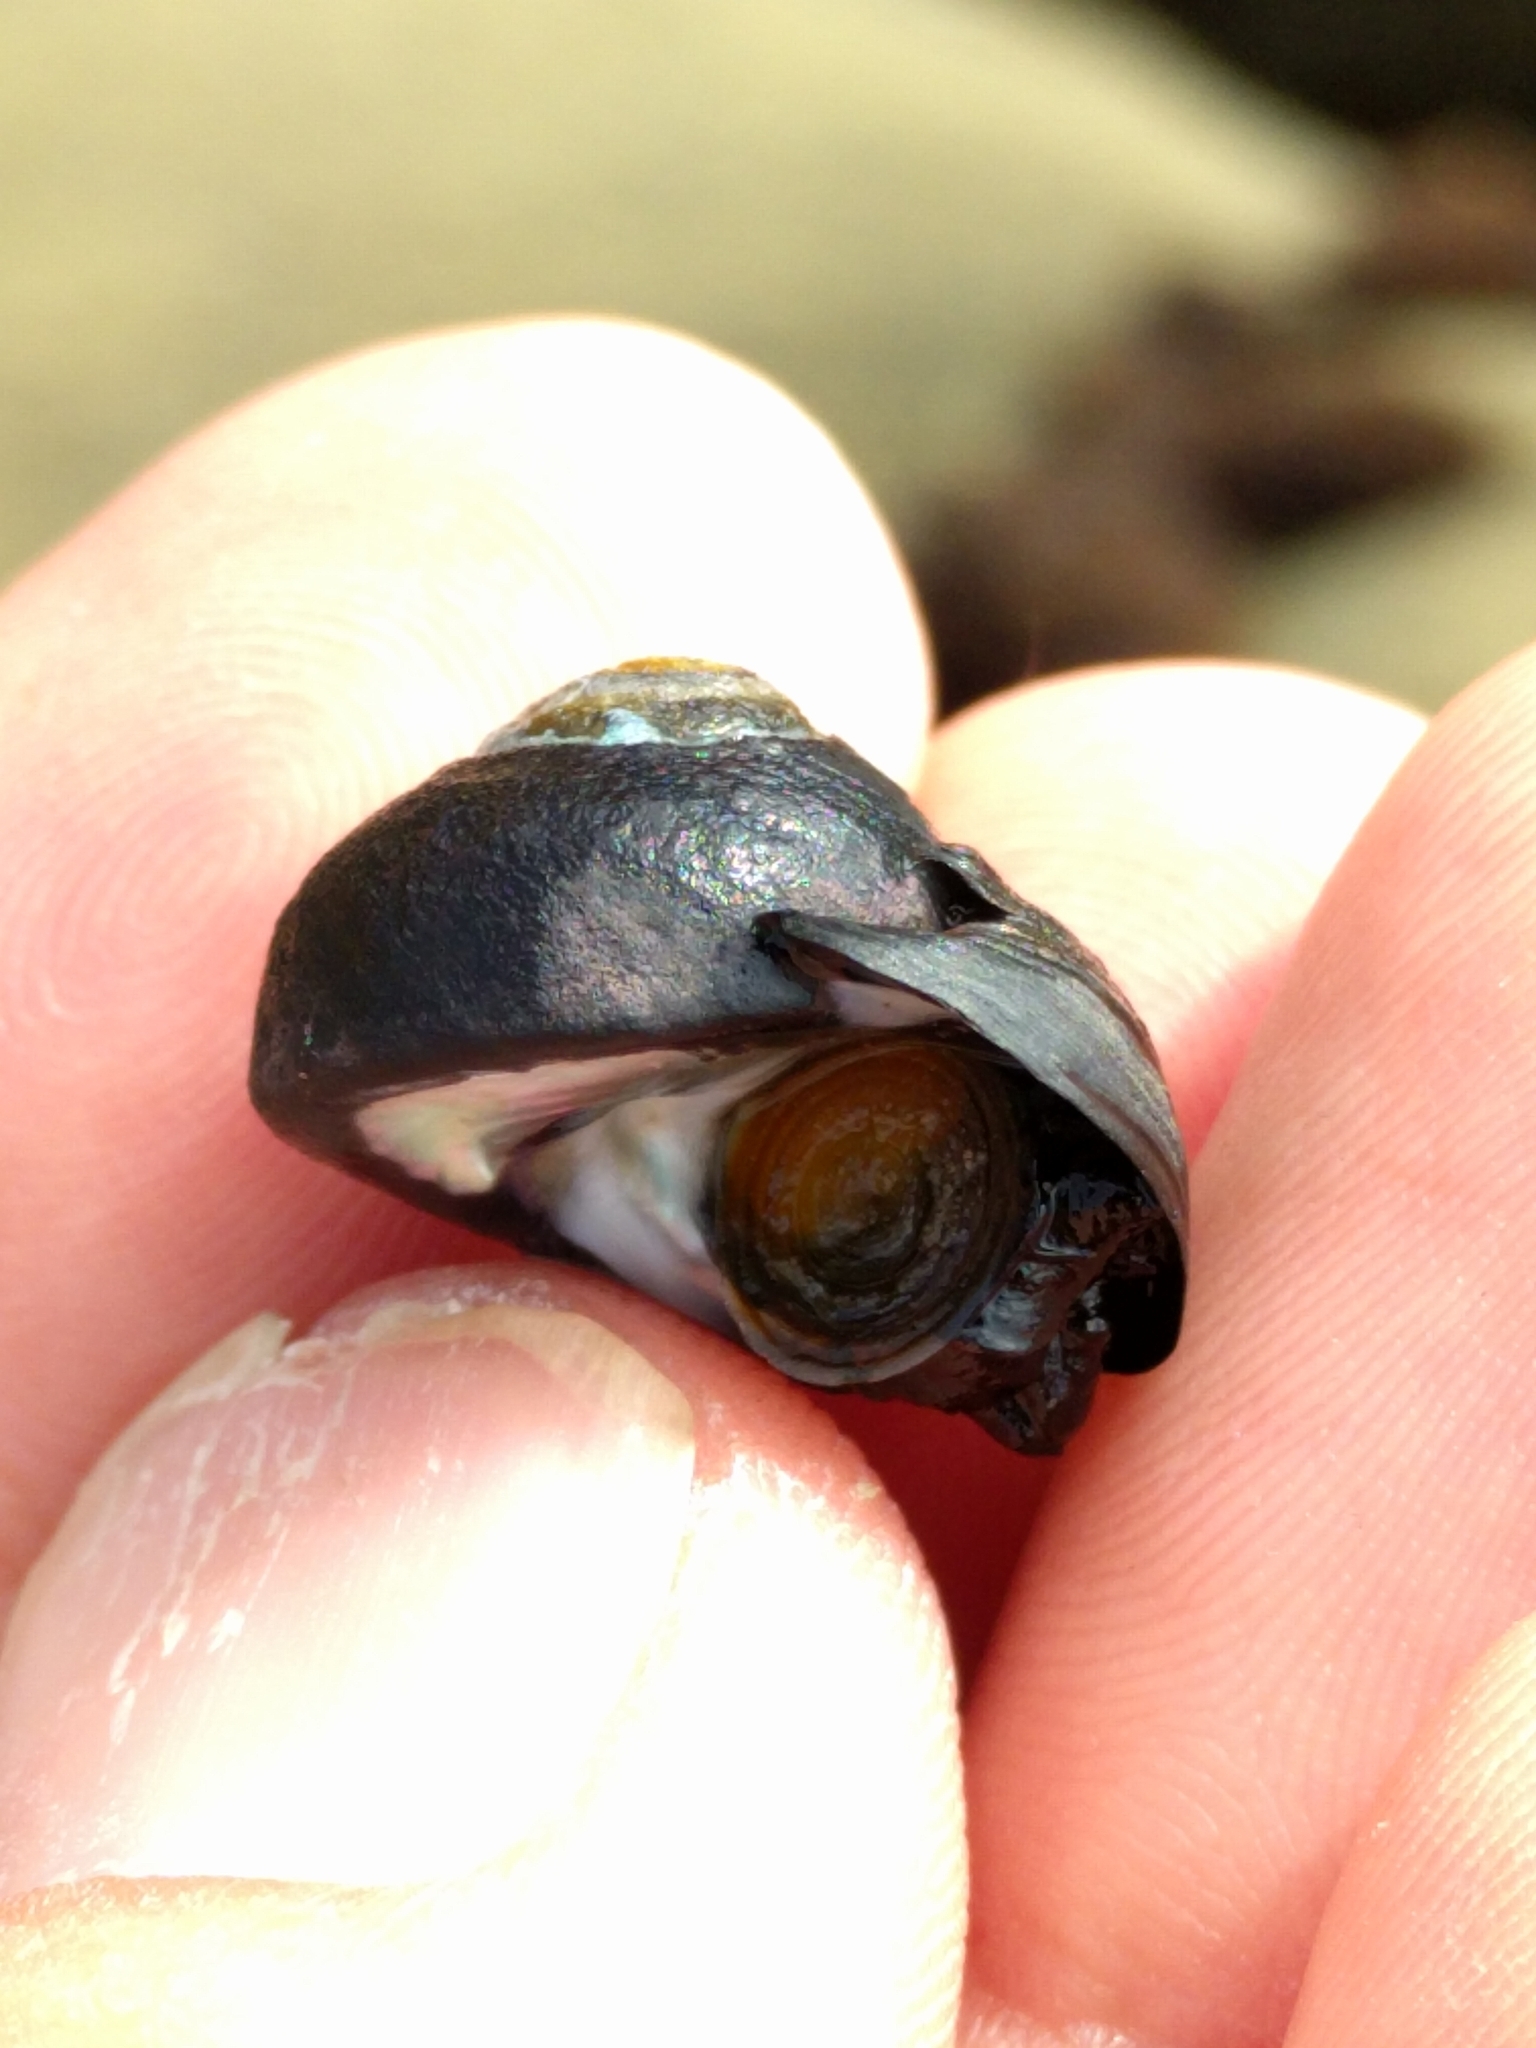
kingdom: Animalia
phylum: Mollusca
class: Gastropoda
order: Trochida
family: Tegulidae
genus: Tegula
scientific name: Tegula funebralis
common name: Black tegula
